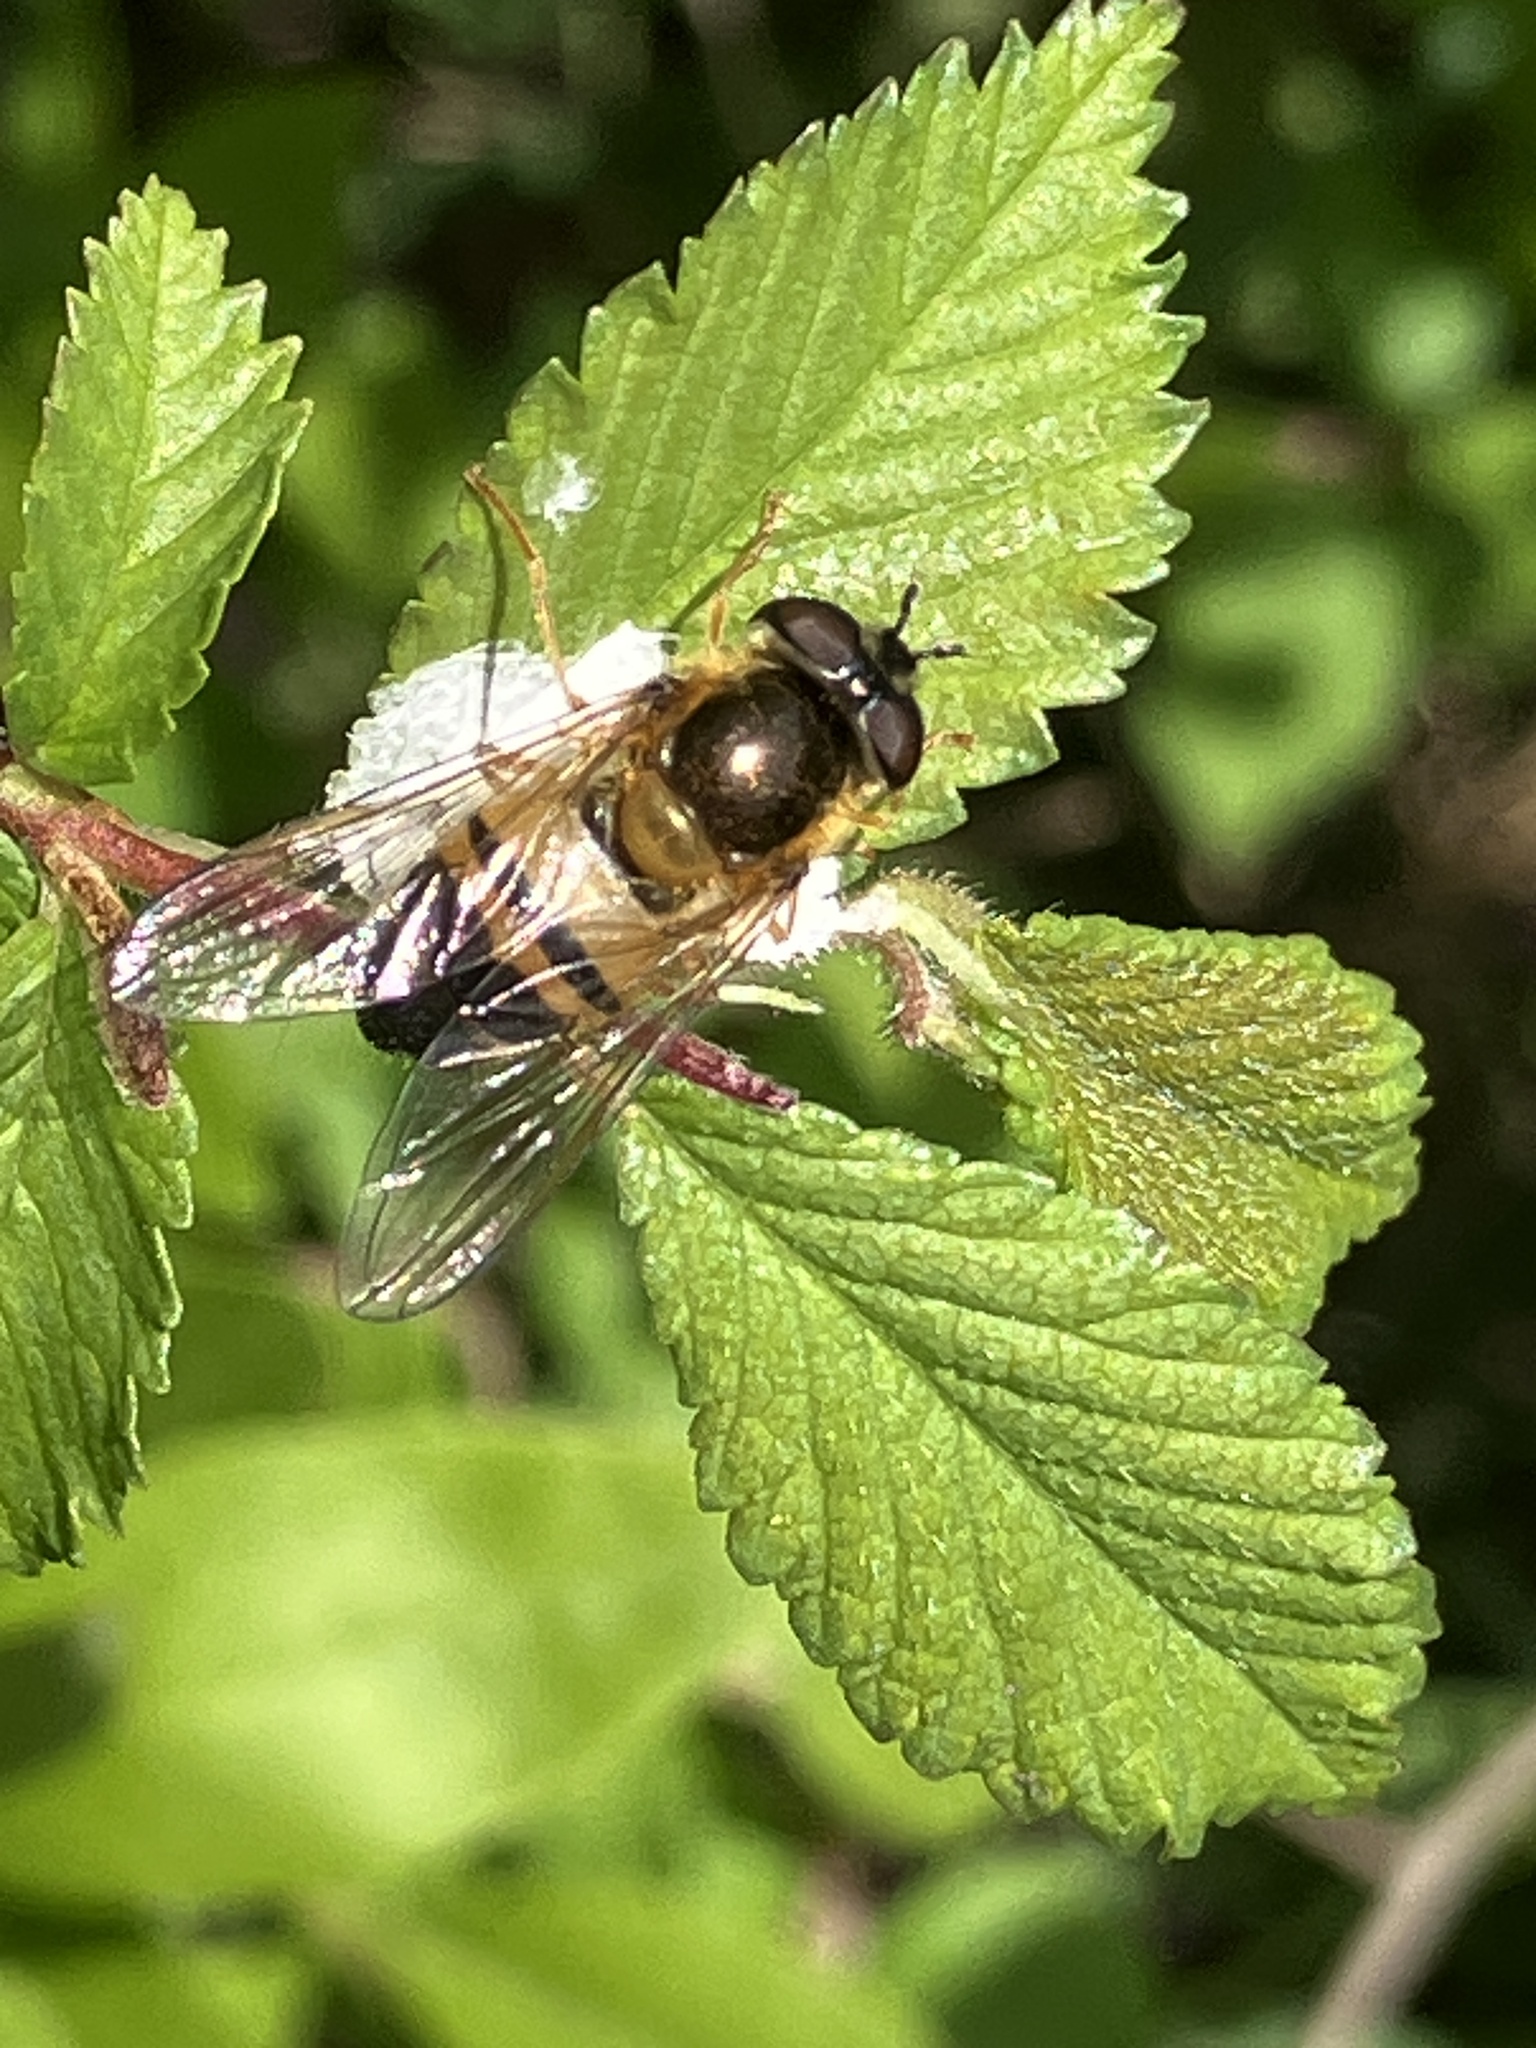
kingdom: Animalia
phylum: Arthropoda
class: Insecta
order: Diptera
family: Syrphidae
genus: Epistrophe
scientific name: Epistrophe eligans
